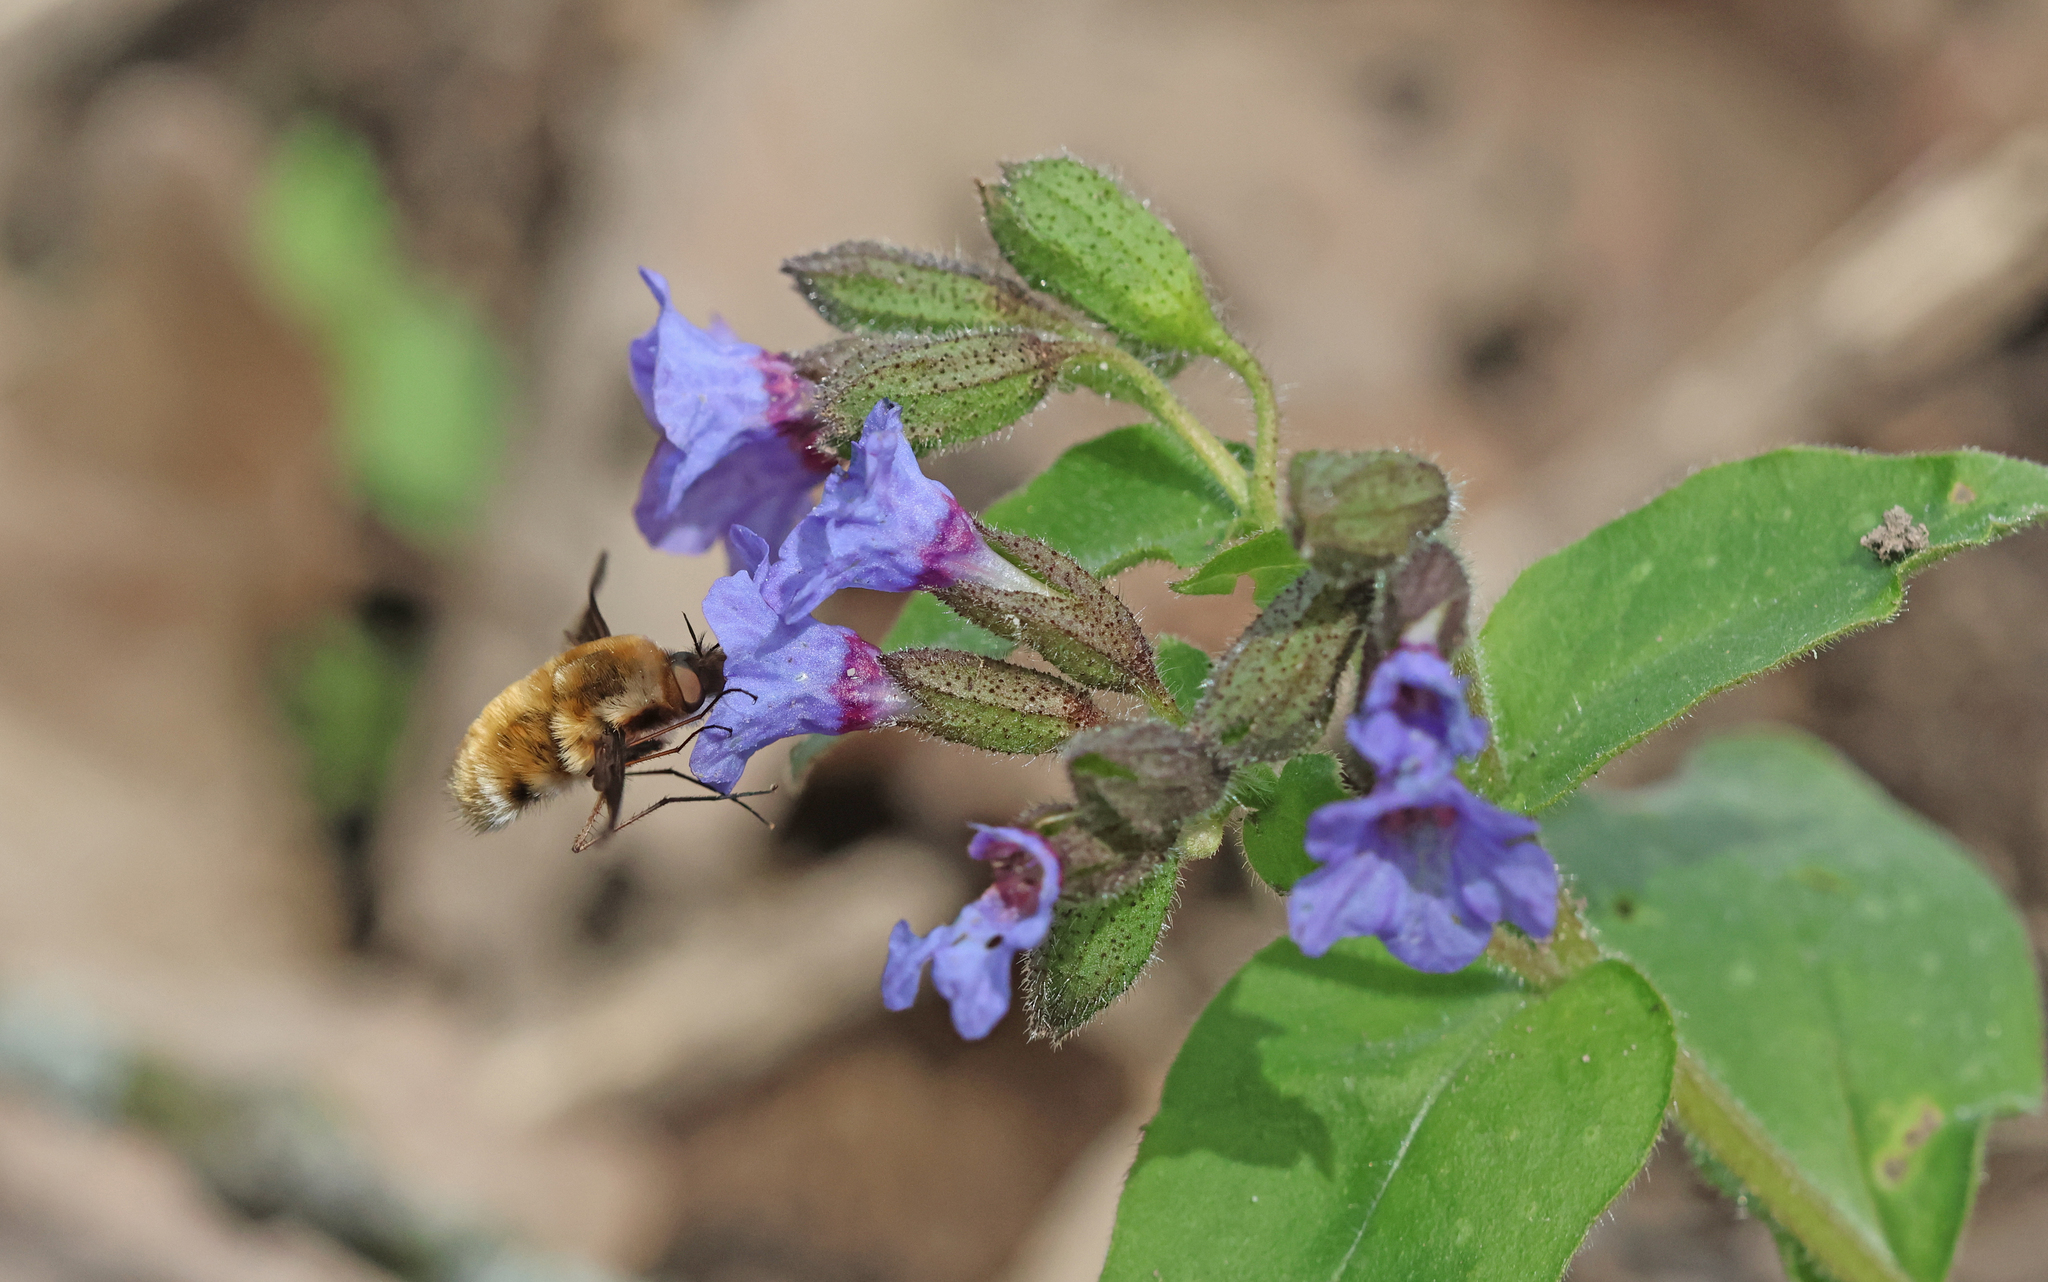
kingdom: Animalia
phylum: Arthropoda
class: Insecta
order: Diptera
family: Bombyliidae
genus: Bombylius
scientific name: Bombylius major
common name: Bee fly
